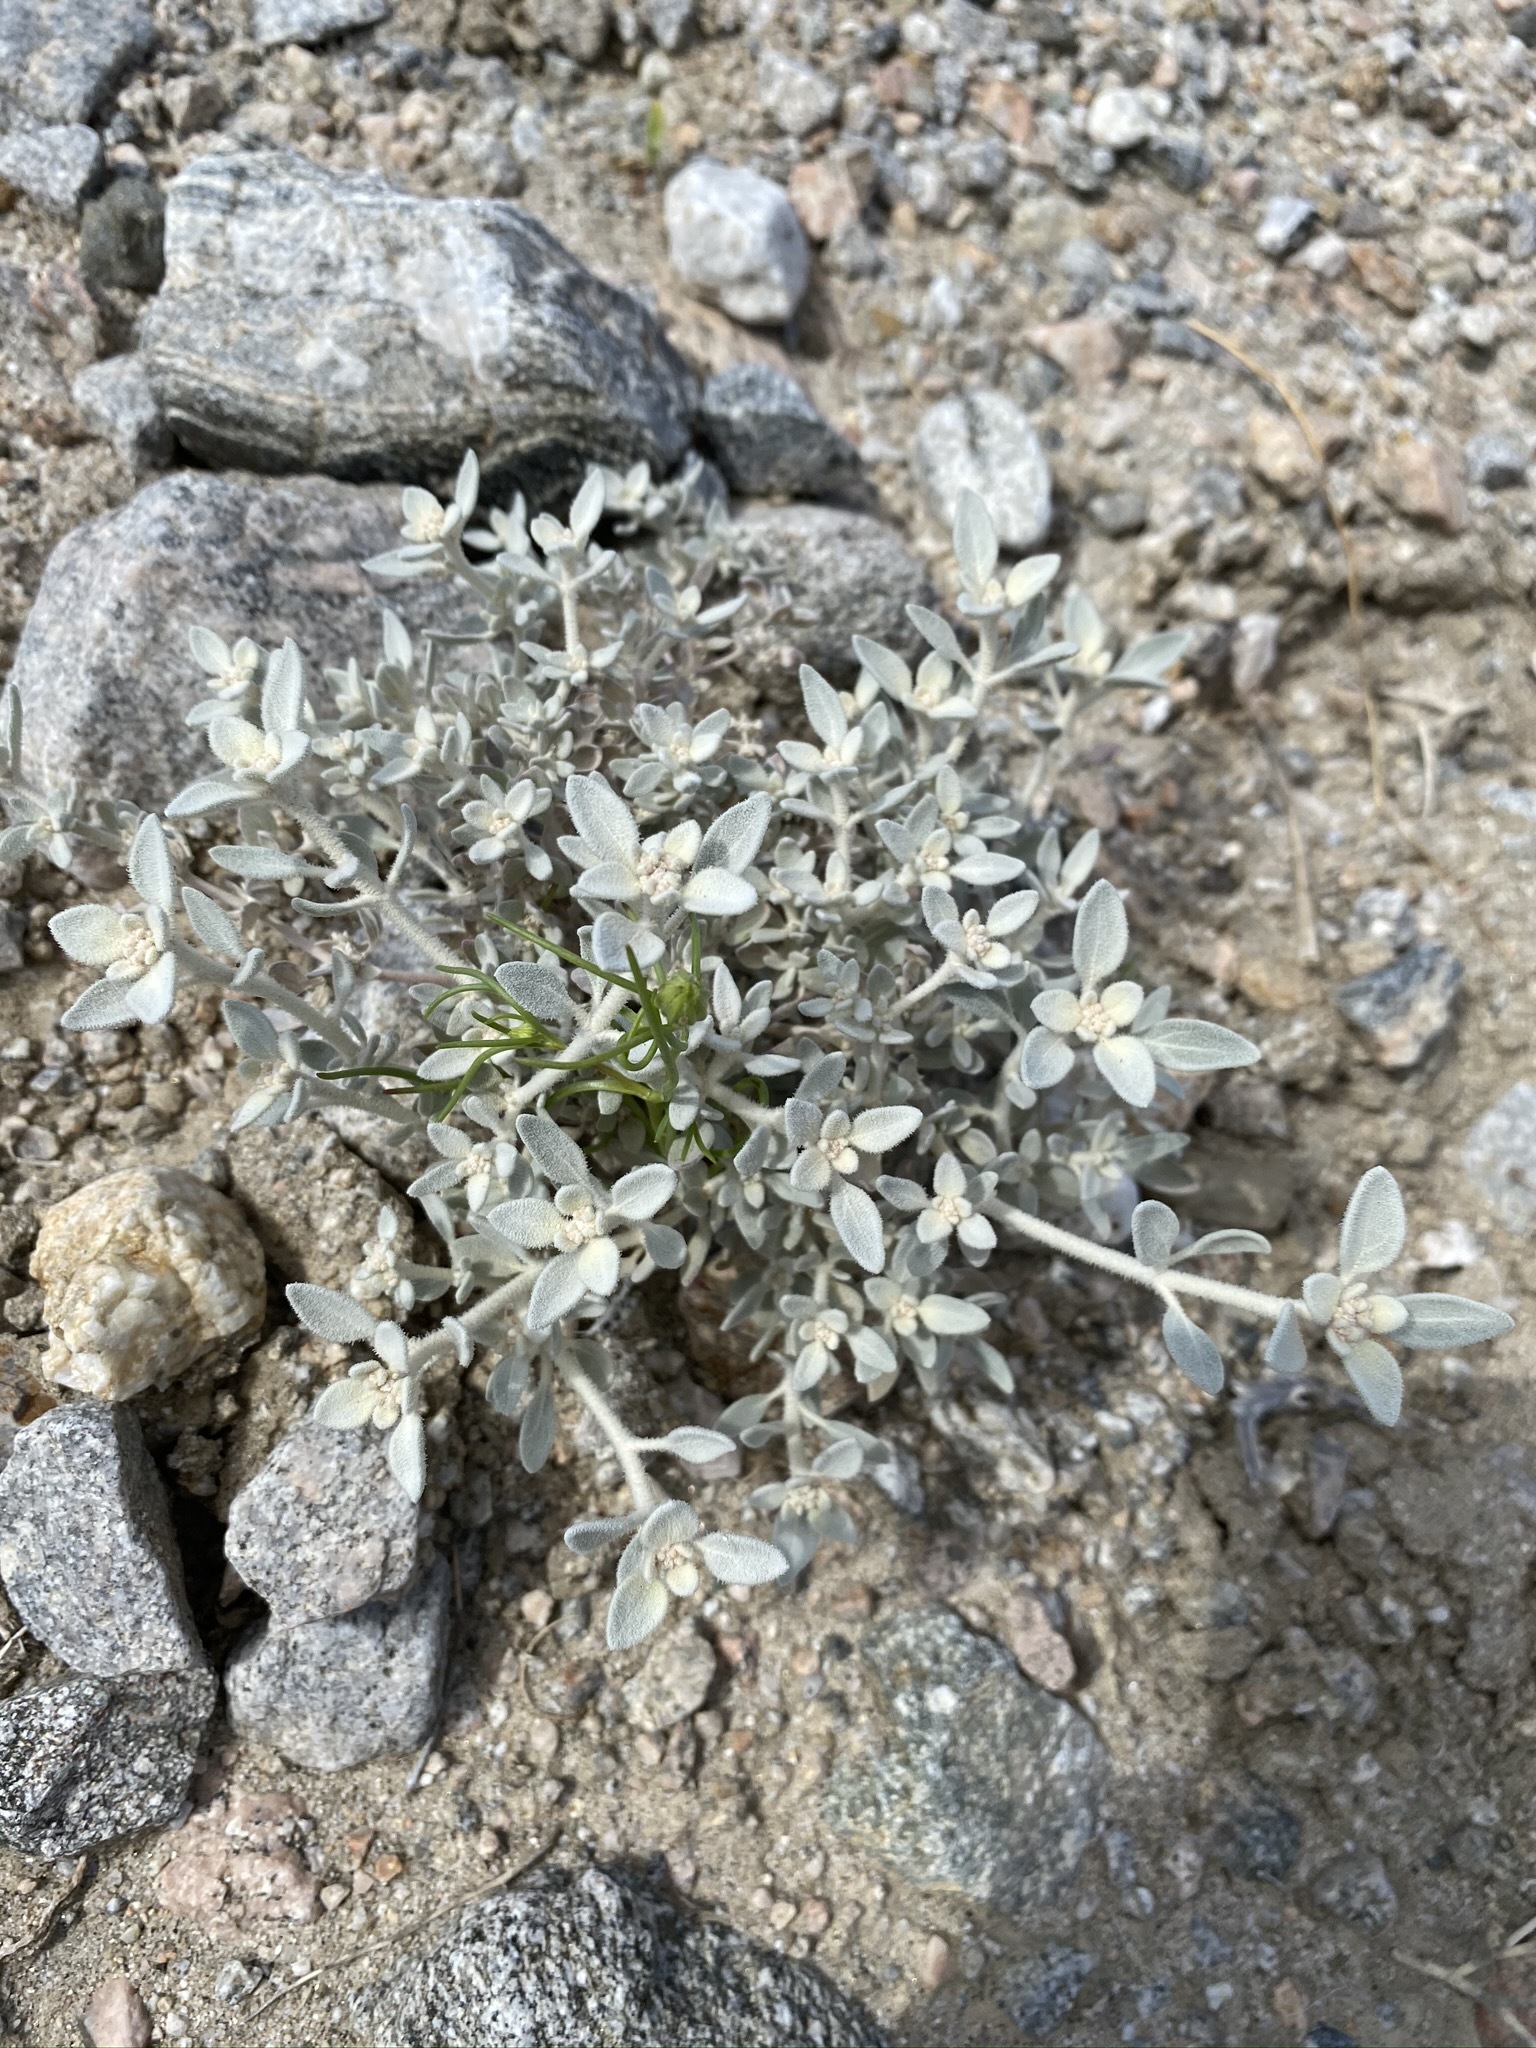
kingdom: Plantae
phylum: Tracheophyta
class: Magnoliopsida
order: Caryophyllales
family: Amaranthaceae
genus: Tidestromia
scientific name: Tidestromia suffruticosa
